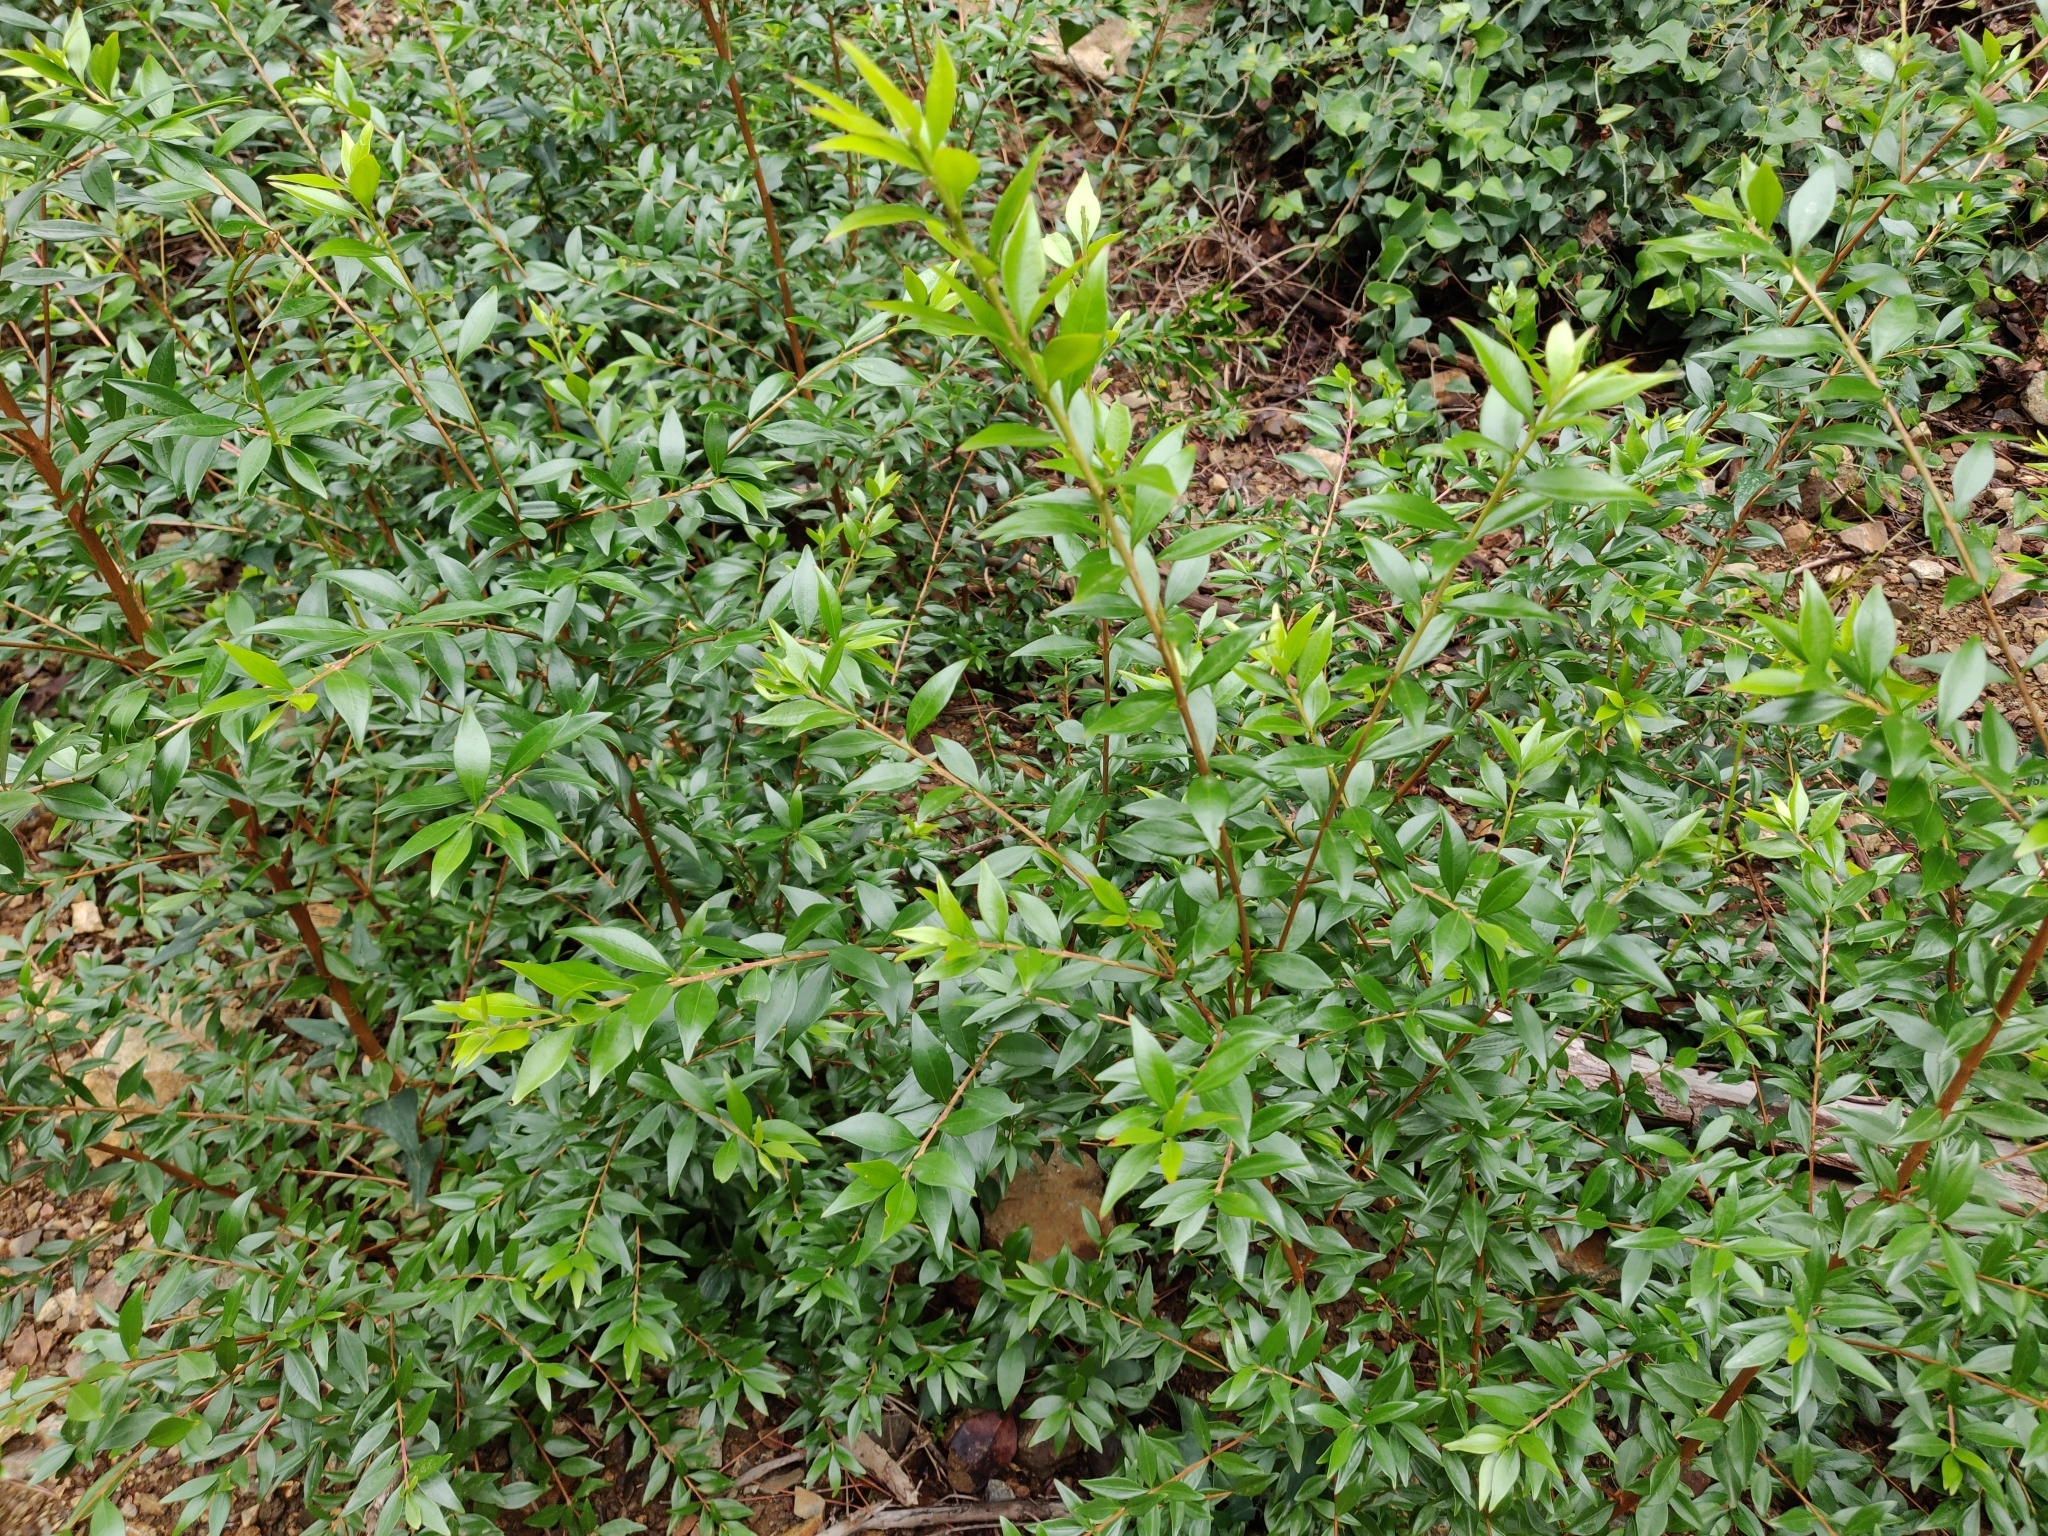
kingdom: Plantae
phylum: Tracheophyta
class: Magnoliopsida
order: Myrtales
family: Myrtaceae
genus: Myrtus
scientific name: Myrtus communis
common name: Myrtle
